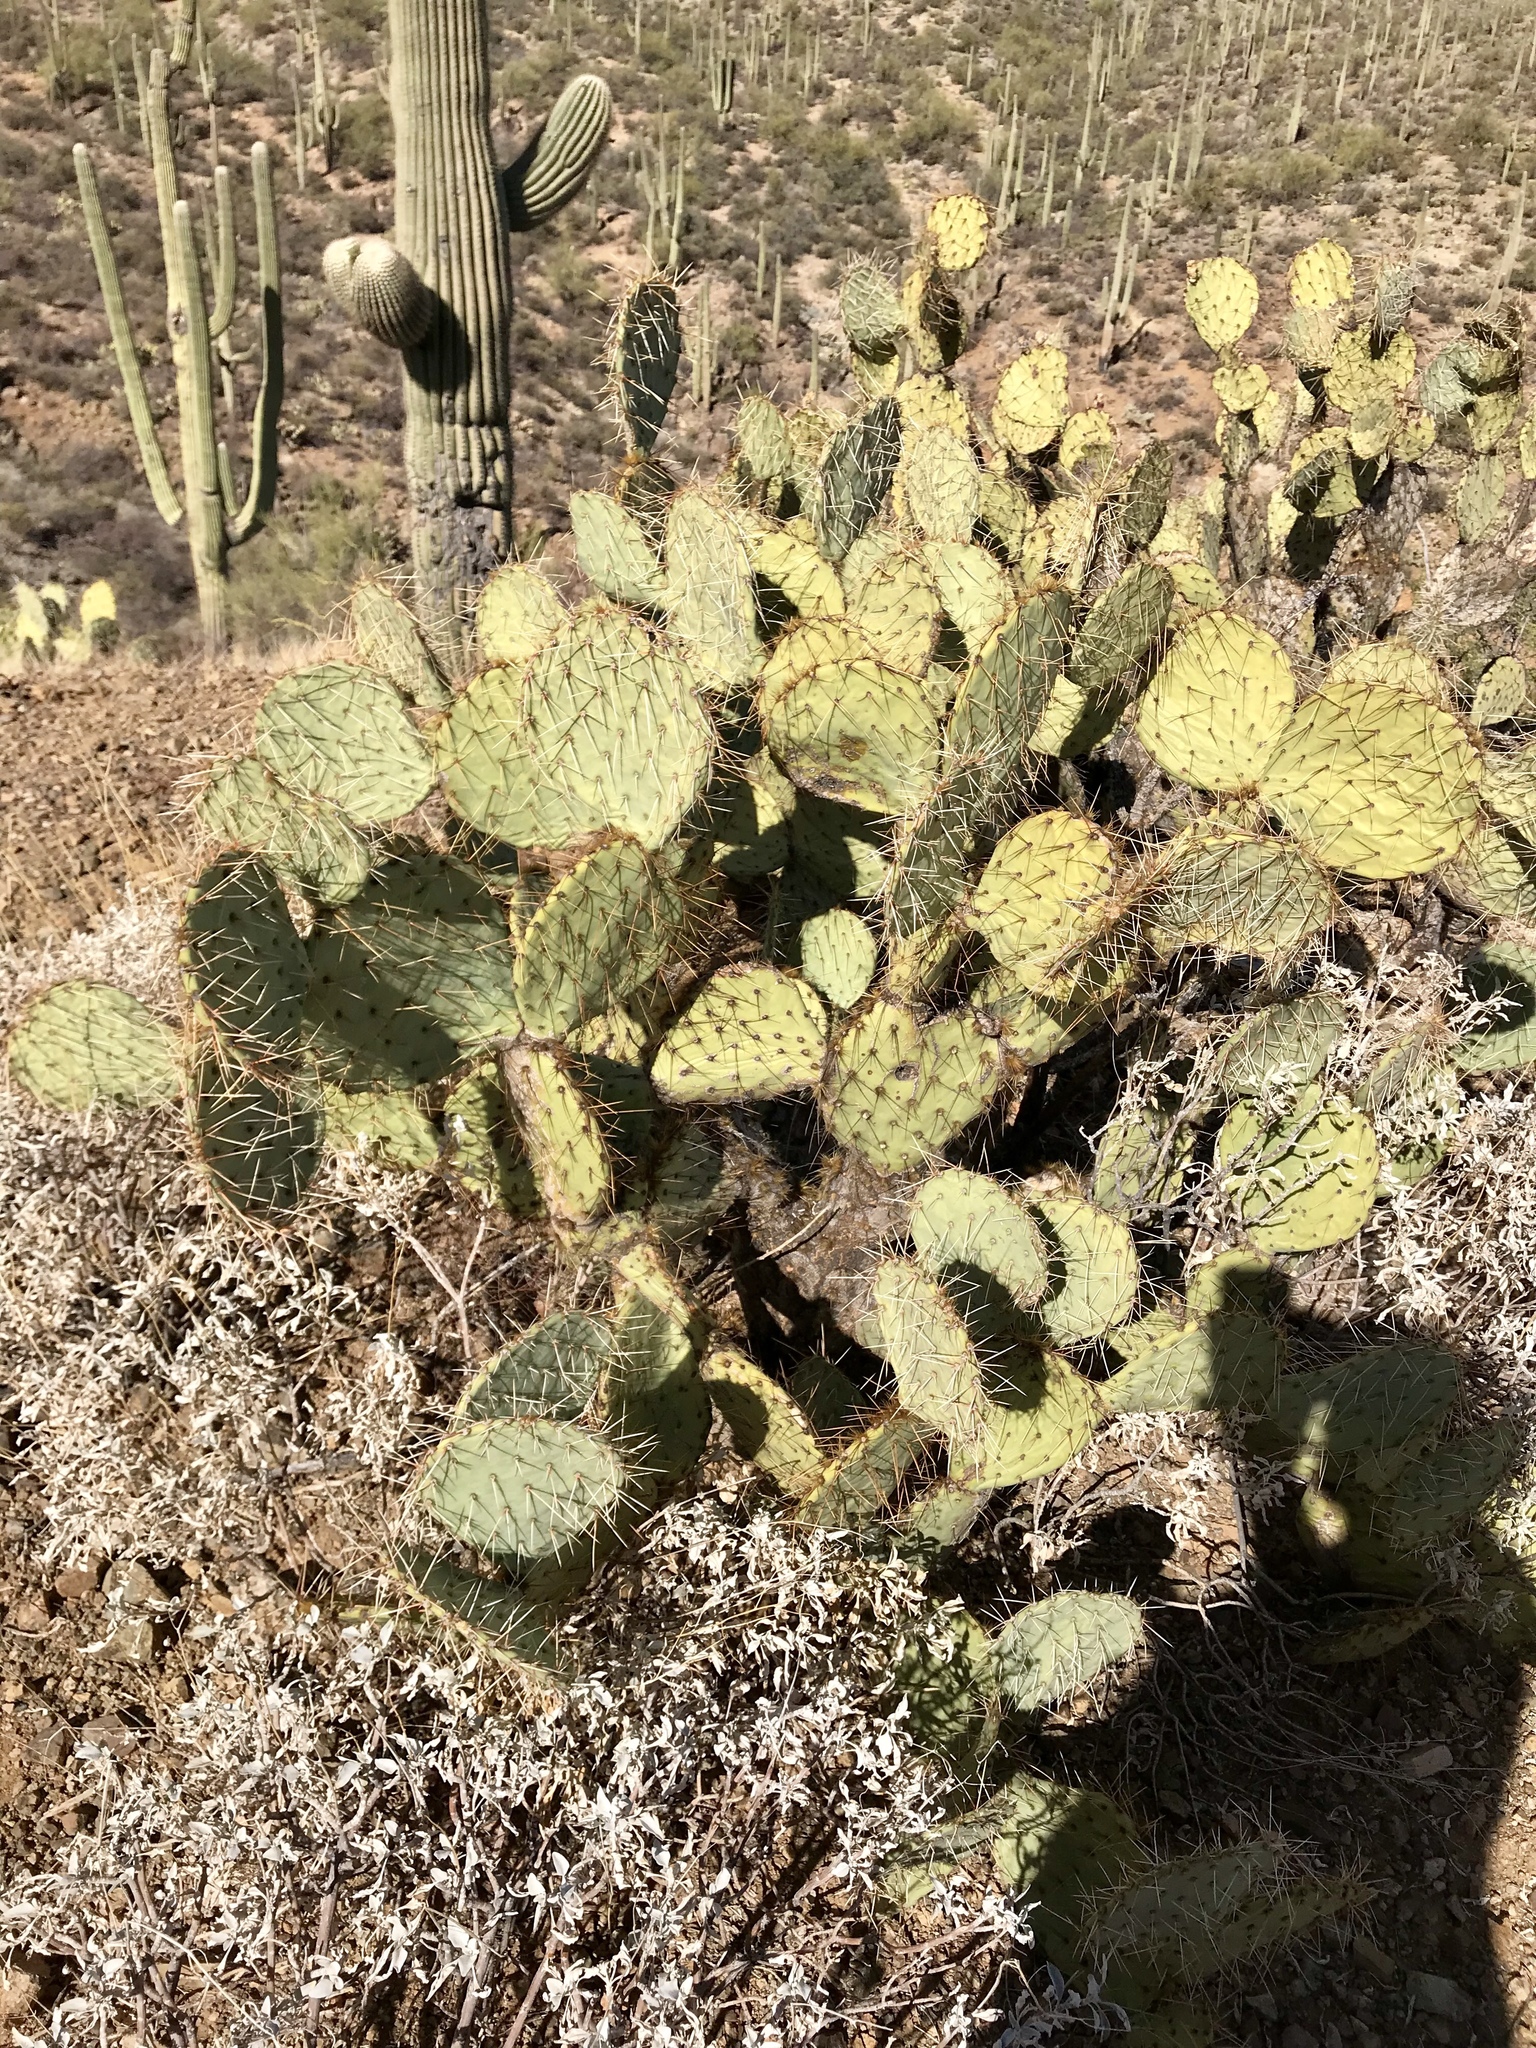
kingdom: Plantae
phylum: Tracheophyta
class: Magnoliopsida
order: Caryophyllales
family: Cactaceae
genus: Opuntia
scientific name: Opuntia engelmannii
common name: Cactus-apple
